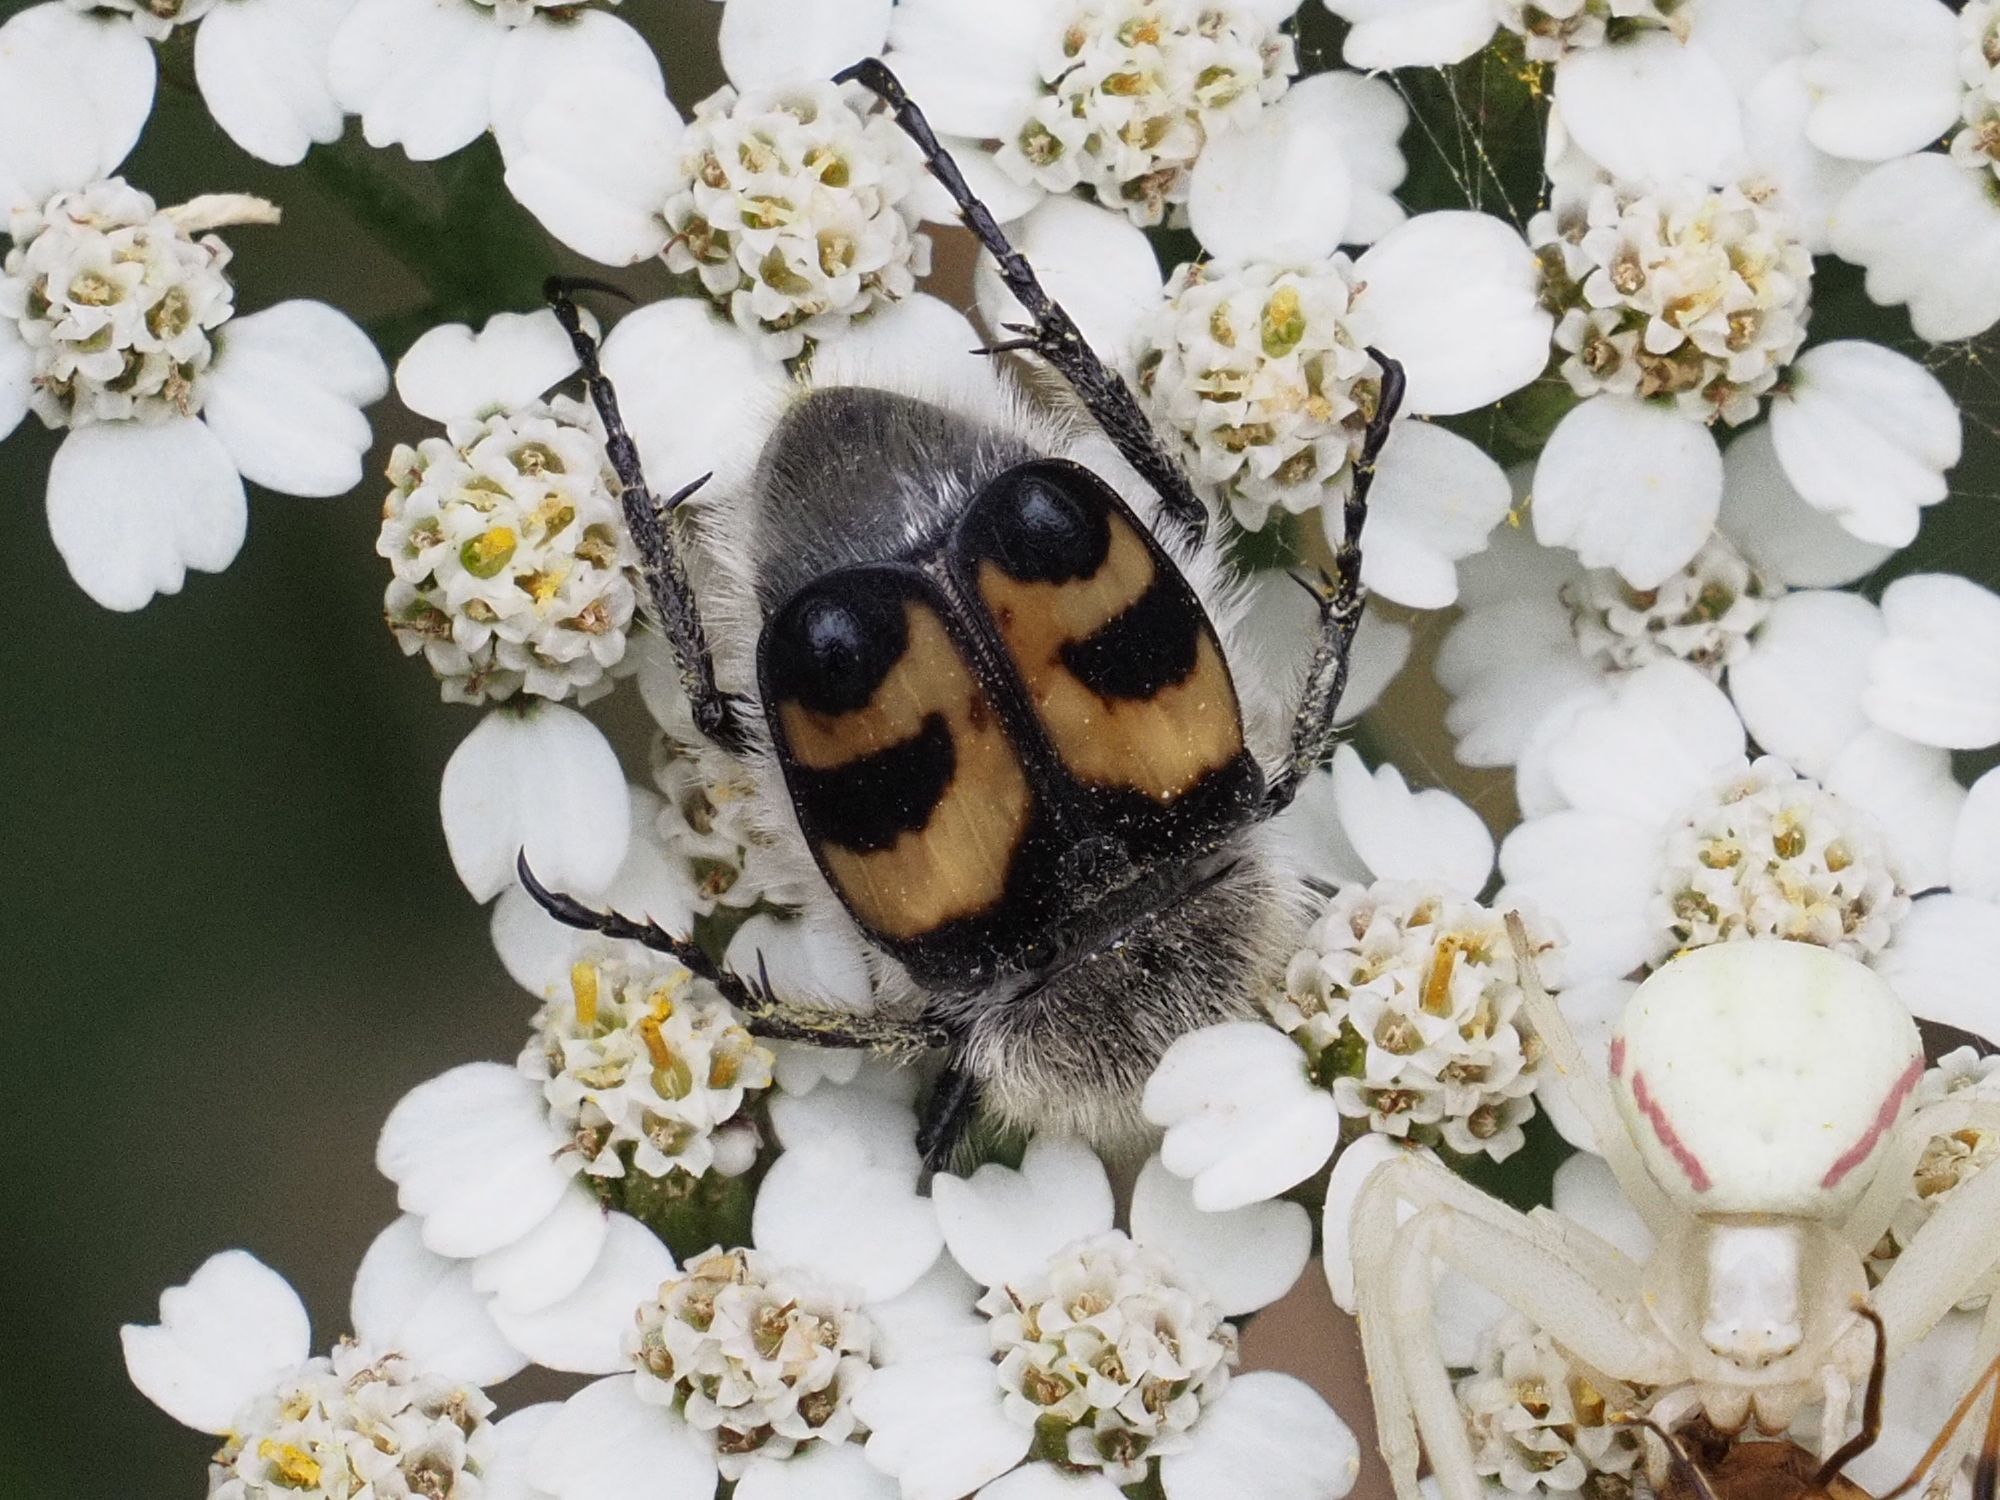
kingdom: Animalia
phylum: Arthropoda
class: Insecta
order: Coleoptera
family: Scarabaeidae
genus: Trichius
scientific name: Trichius fasciatus
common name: Bee beetle
